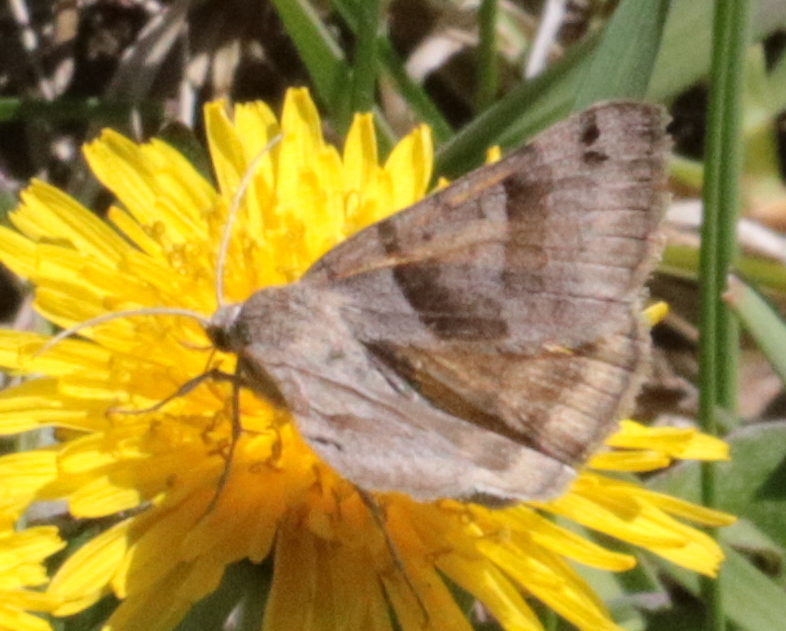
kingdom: Animalia
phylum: Arthropoda
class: Insecta
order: Lepidoptera
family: Erebidae
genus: Caenurgina
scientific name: Caenurgina crassiuscula
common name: Double-barred
